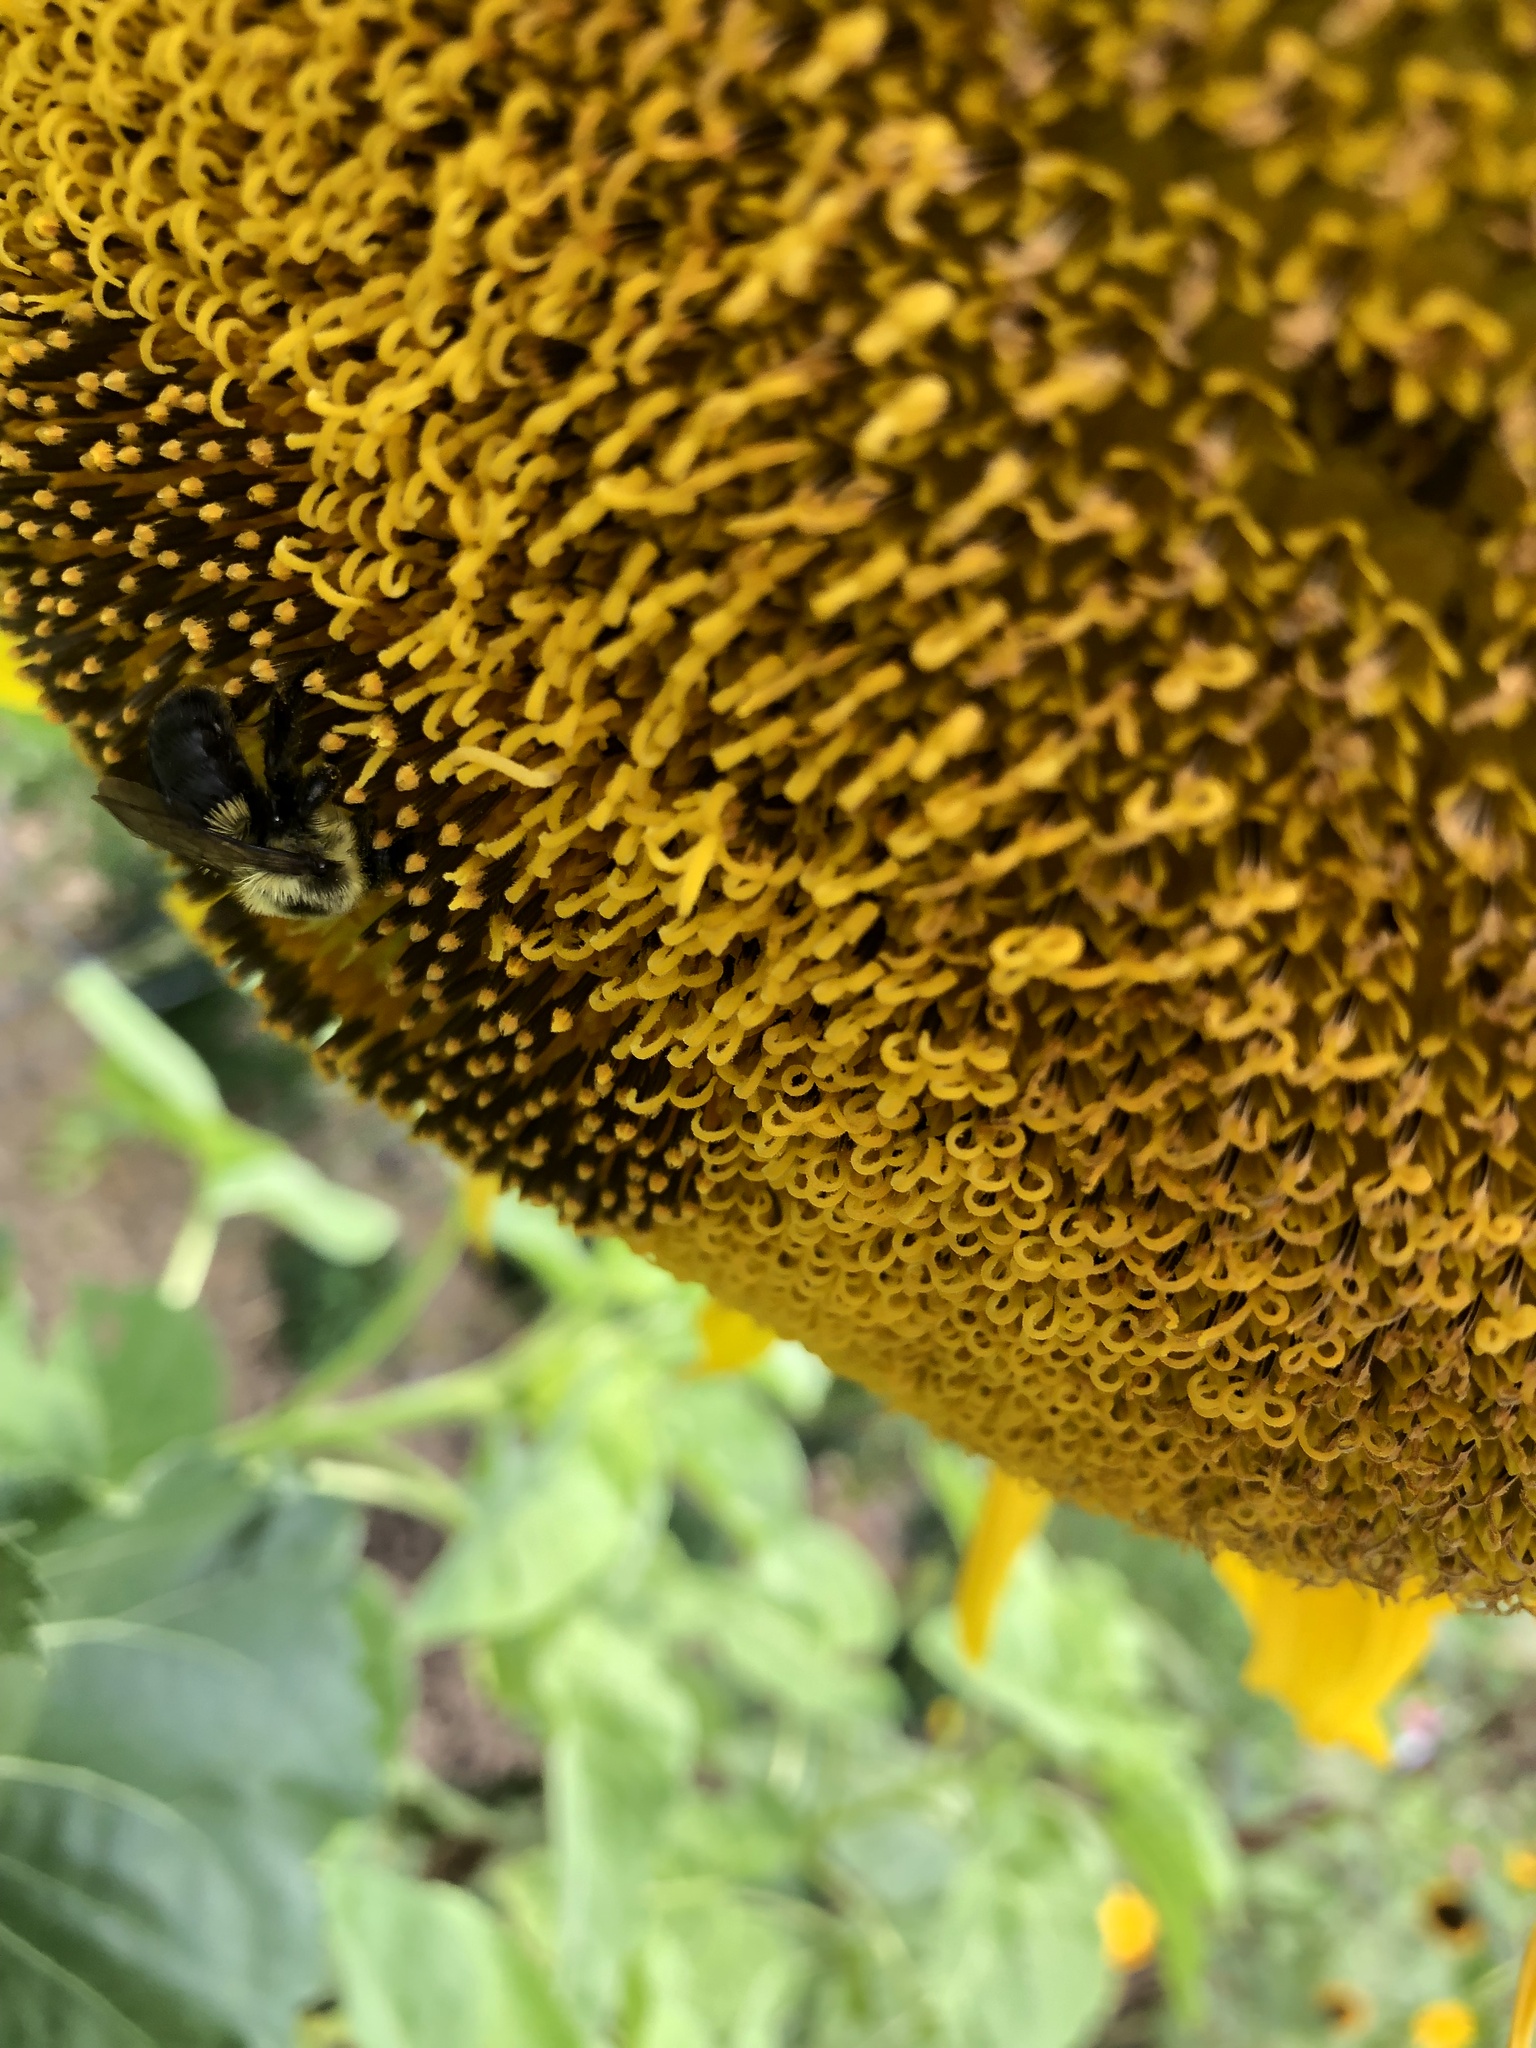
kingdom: Animalia
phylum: Arthropoda
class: Insecta
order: Hymenoptera
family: Apidae
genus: Bombus
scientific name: Bombus impatiens
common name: Common eastern bumble bee
